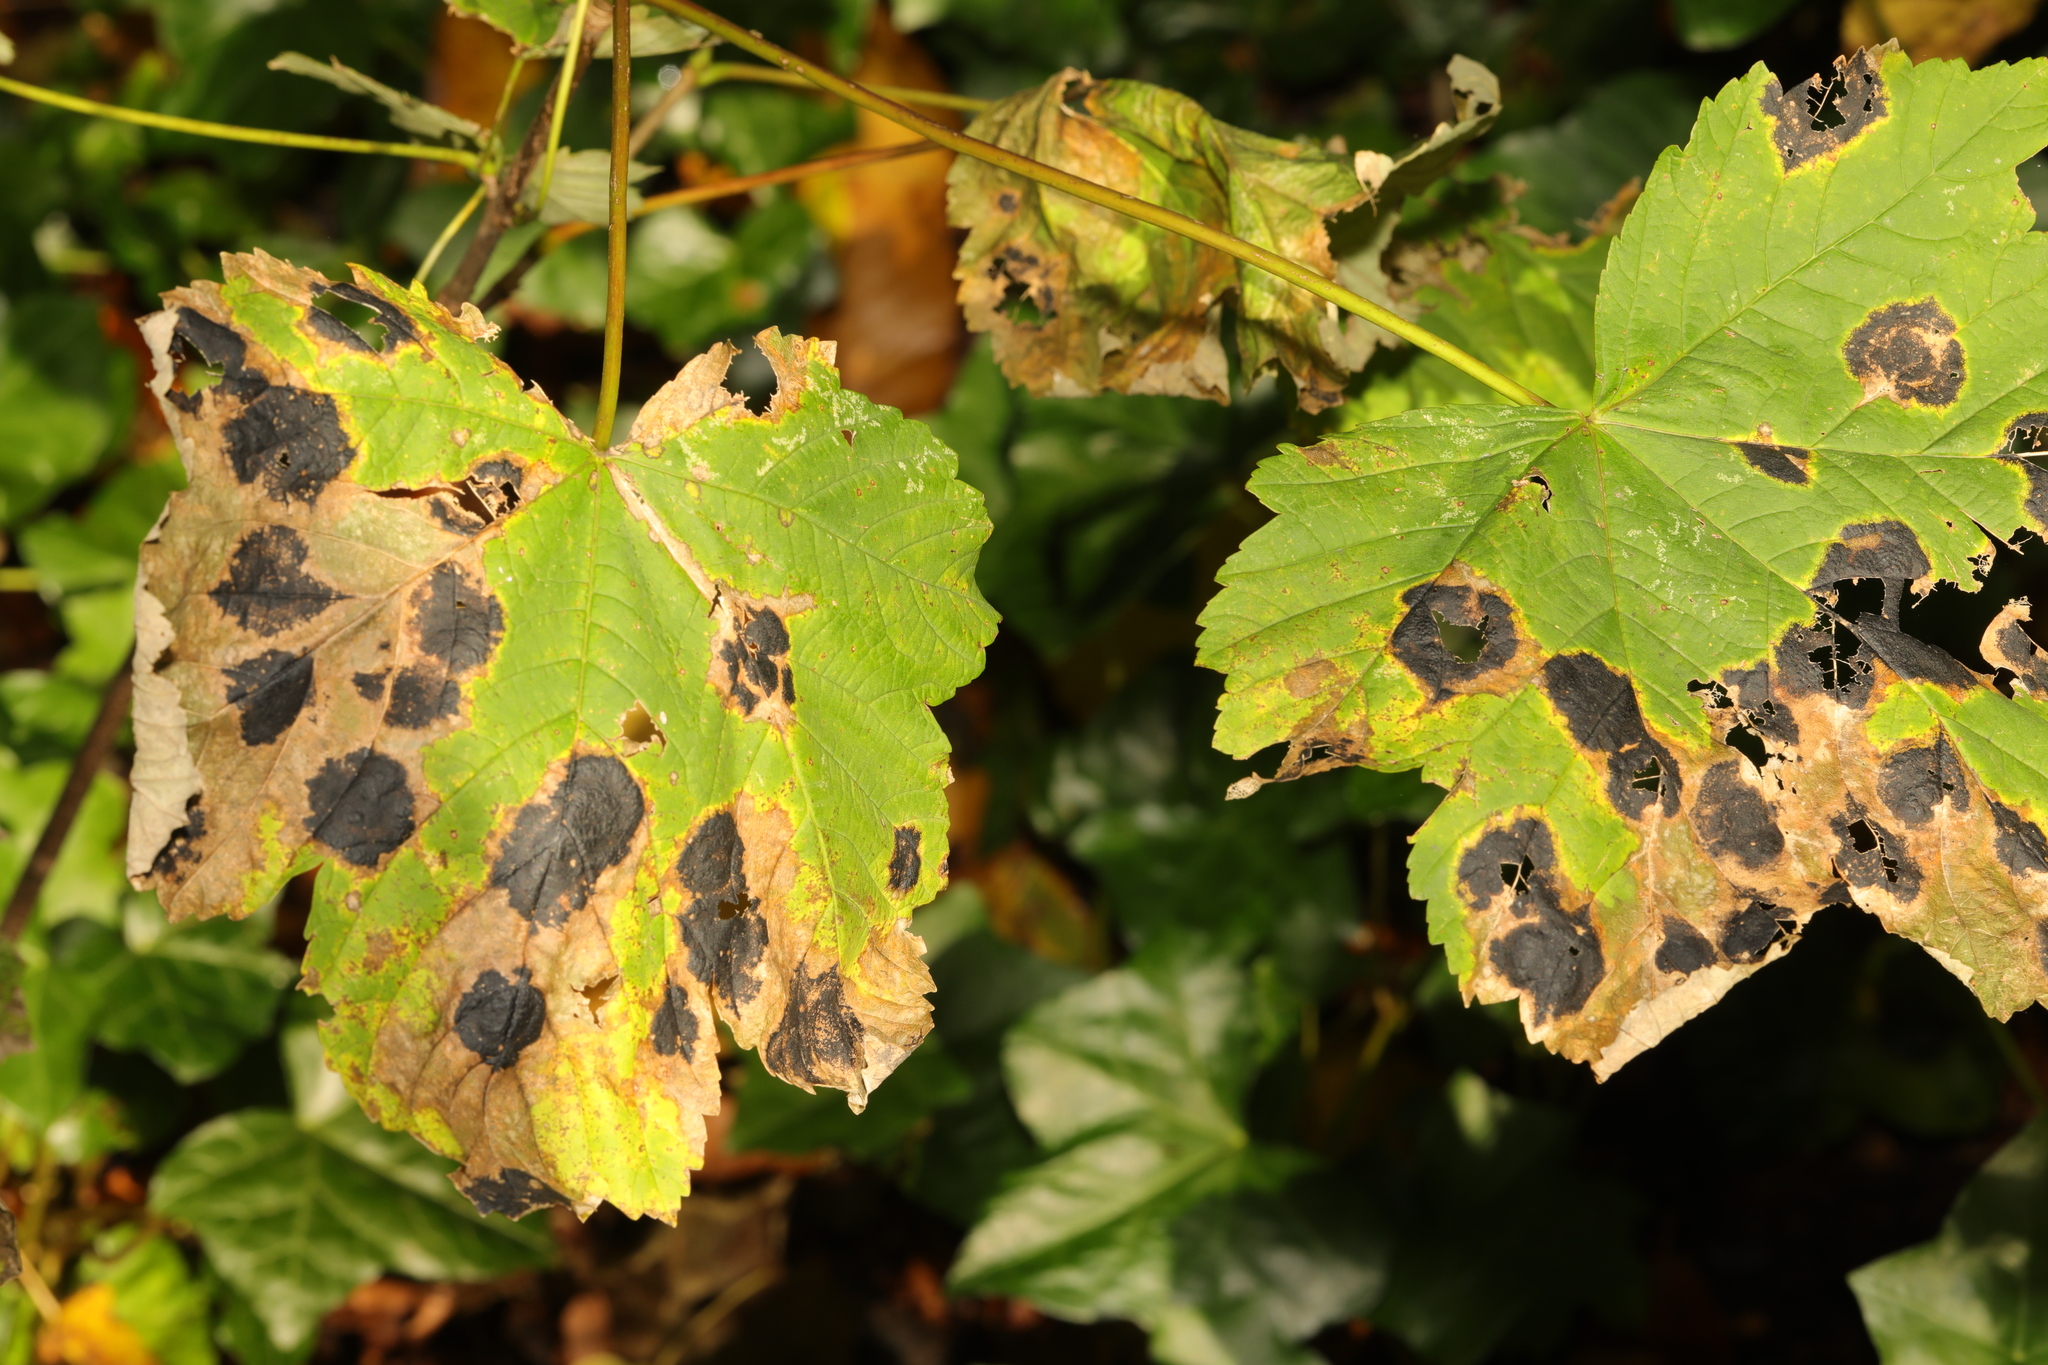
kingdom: Plantae
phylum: Tracheophyta
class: Magnoliopsida
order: Sapindales
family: Sapindaceae
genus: Acer
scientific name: Acer pseudoplatanus
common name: Sycamore
